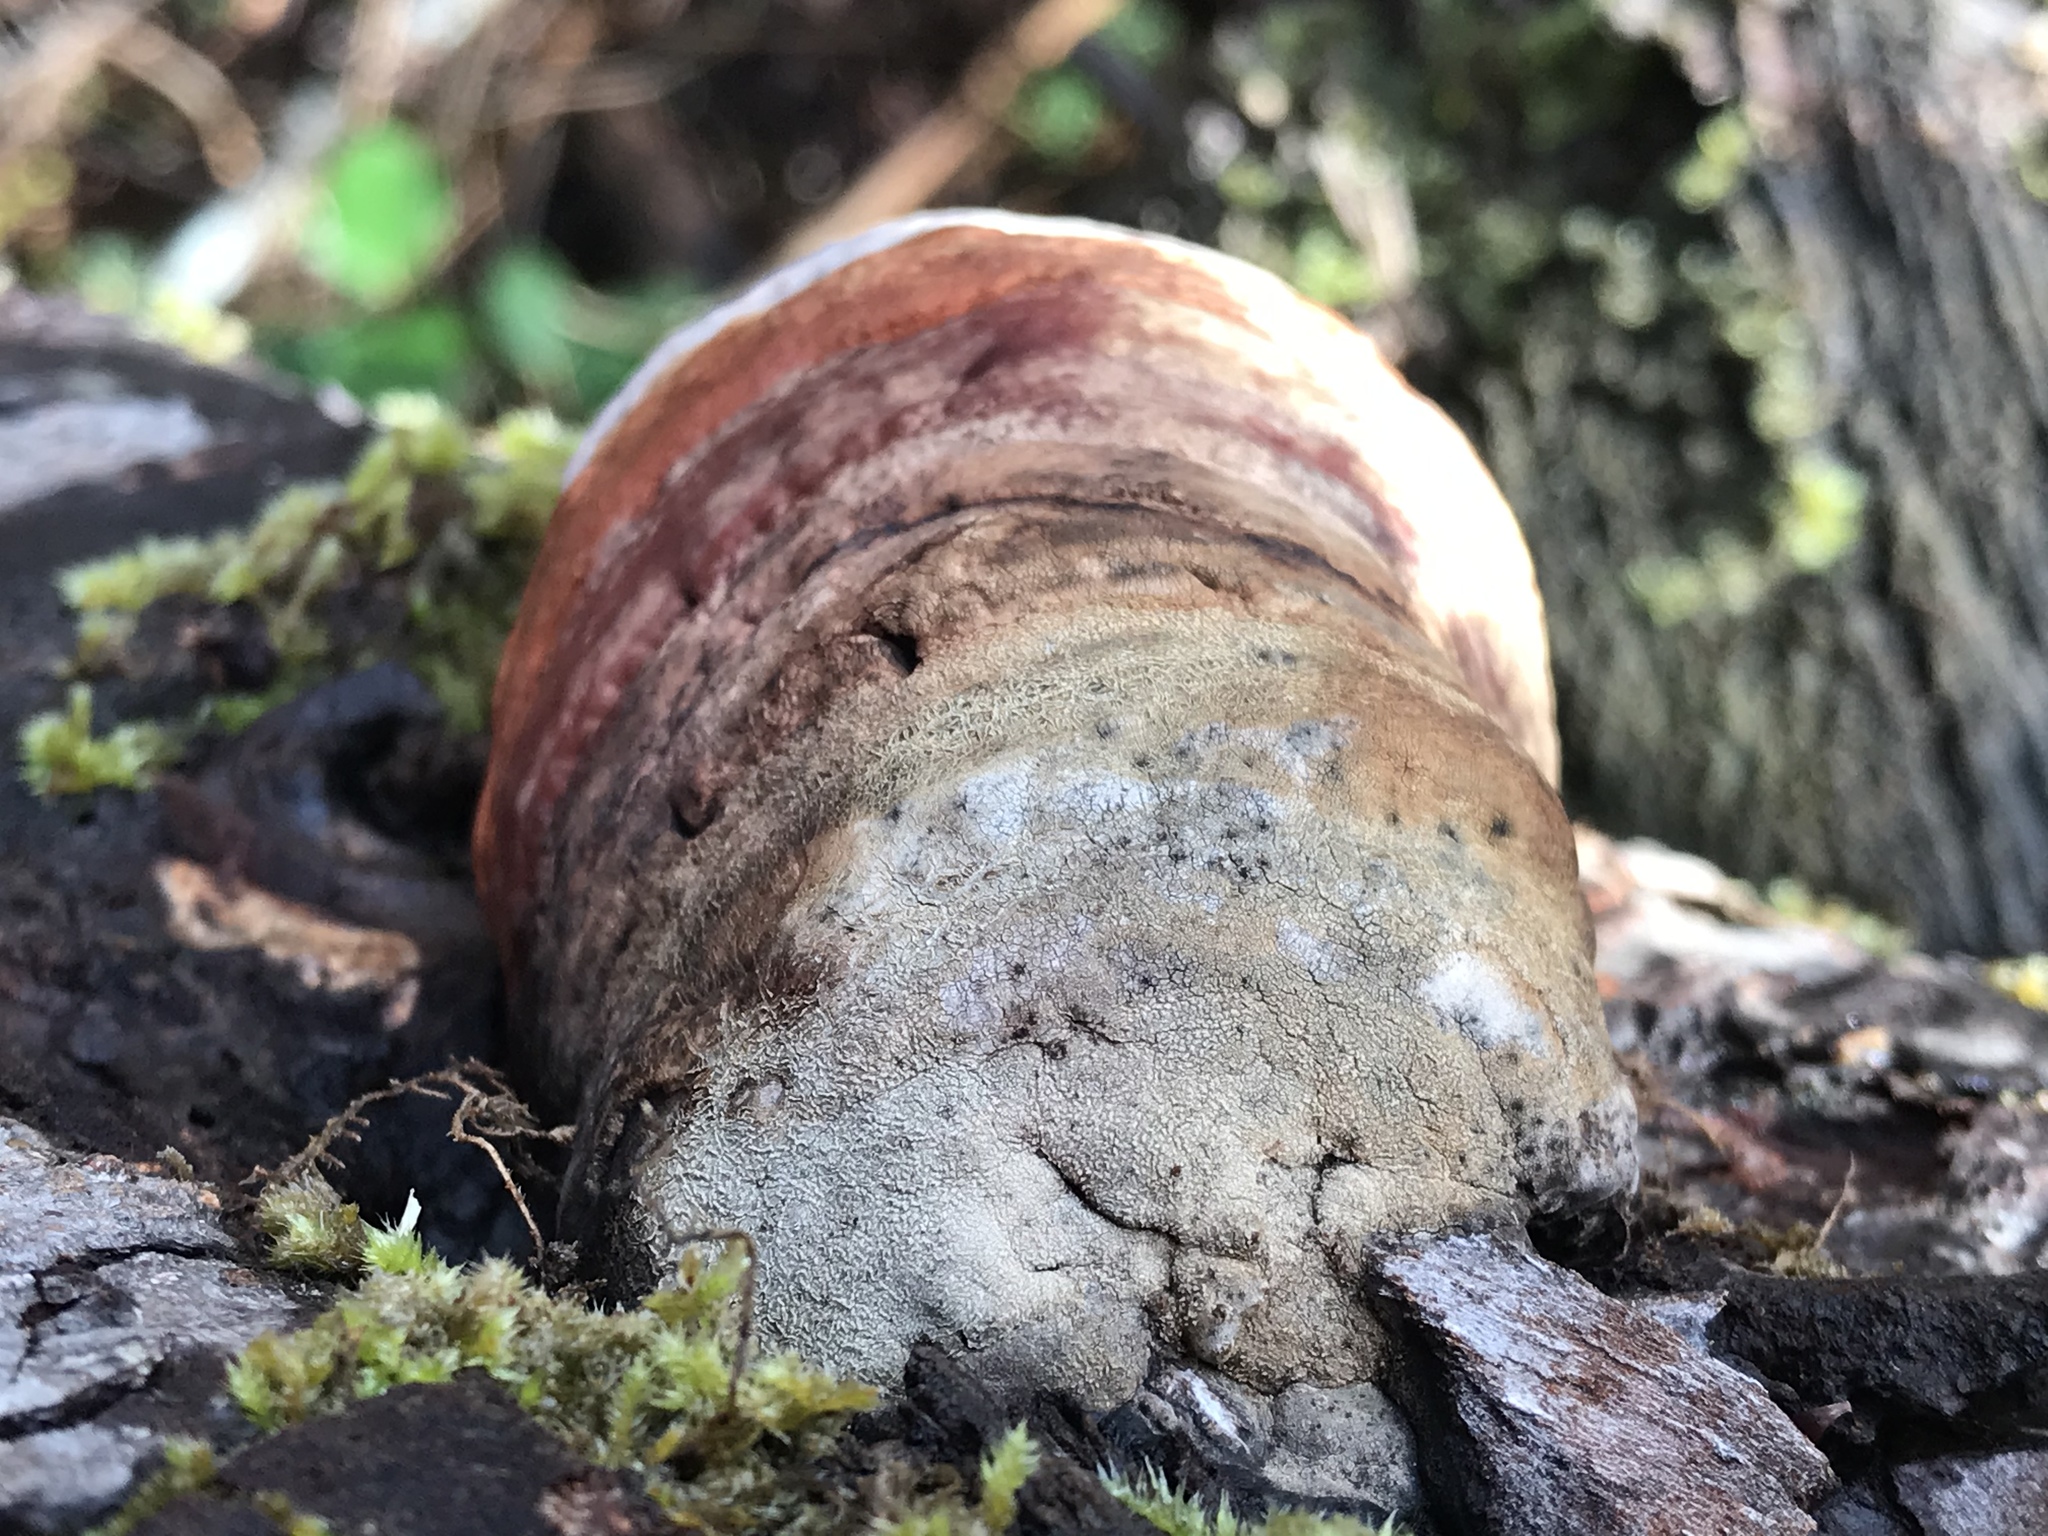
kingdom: Fungi
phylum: Basidiomycota
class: Agaricomycetes
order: Polyporales
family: Fomitopsidaceae
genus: Fomitopsis
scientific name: Fomitopsis officinalis
